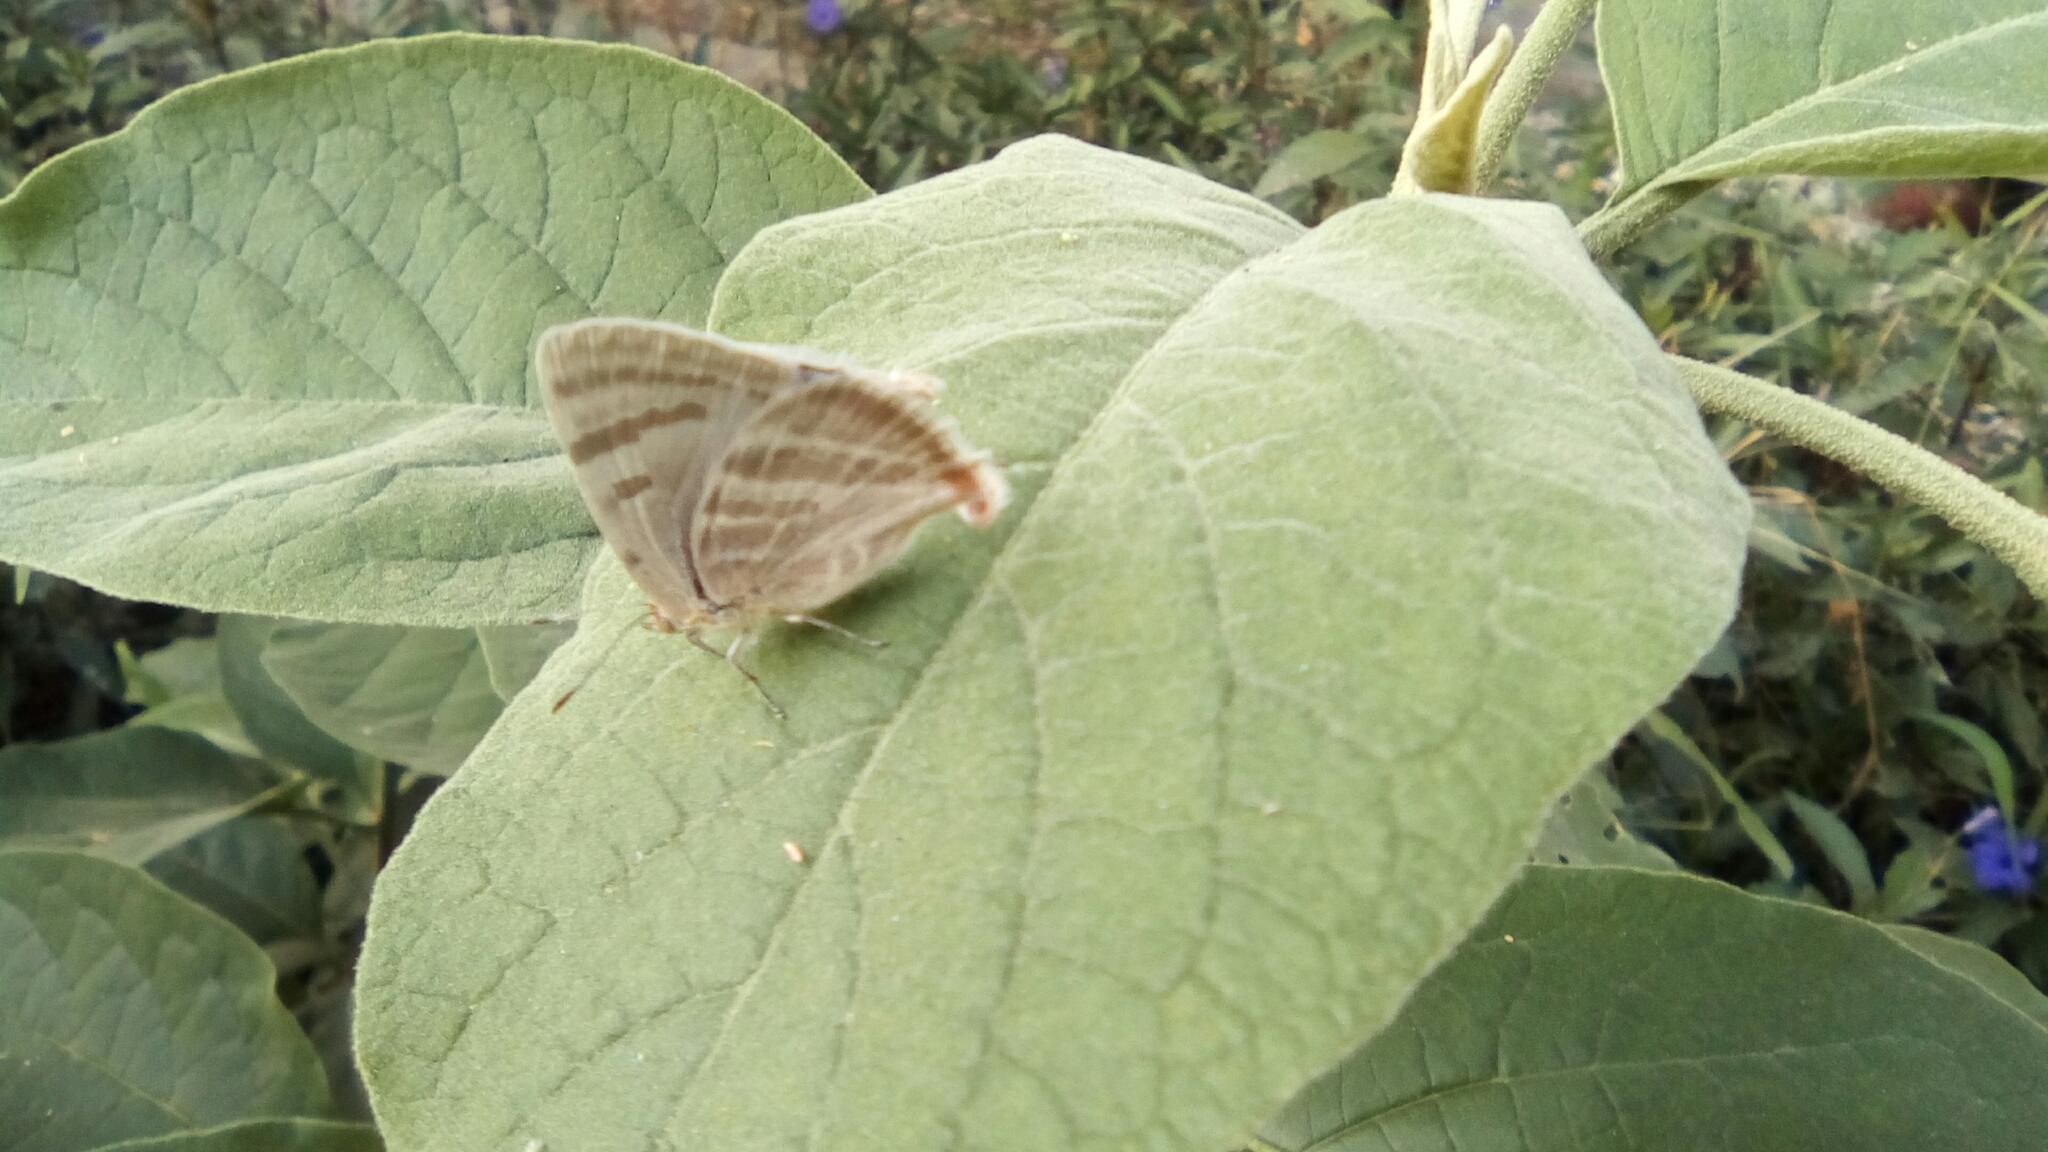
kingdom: Animalia
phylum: Arthropoda
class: Insecta
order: Lepidoptera
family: Lycaenidae
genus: Dolymorpha
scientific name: Dolymorpha jada
